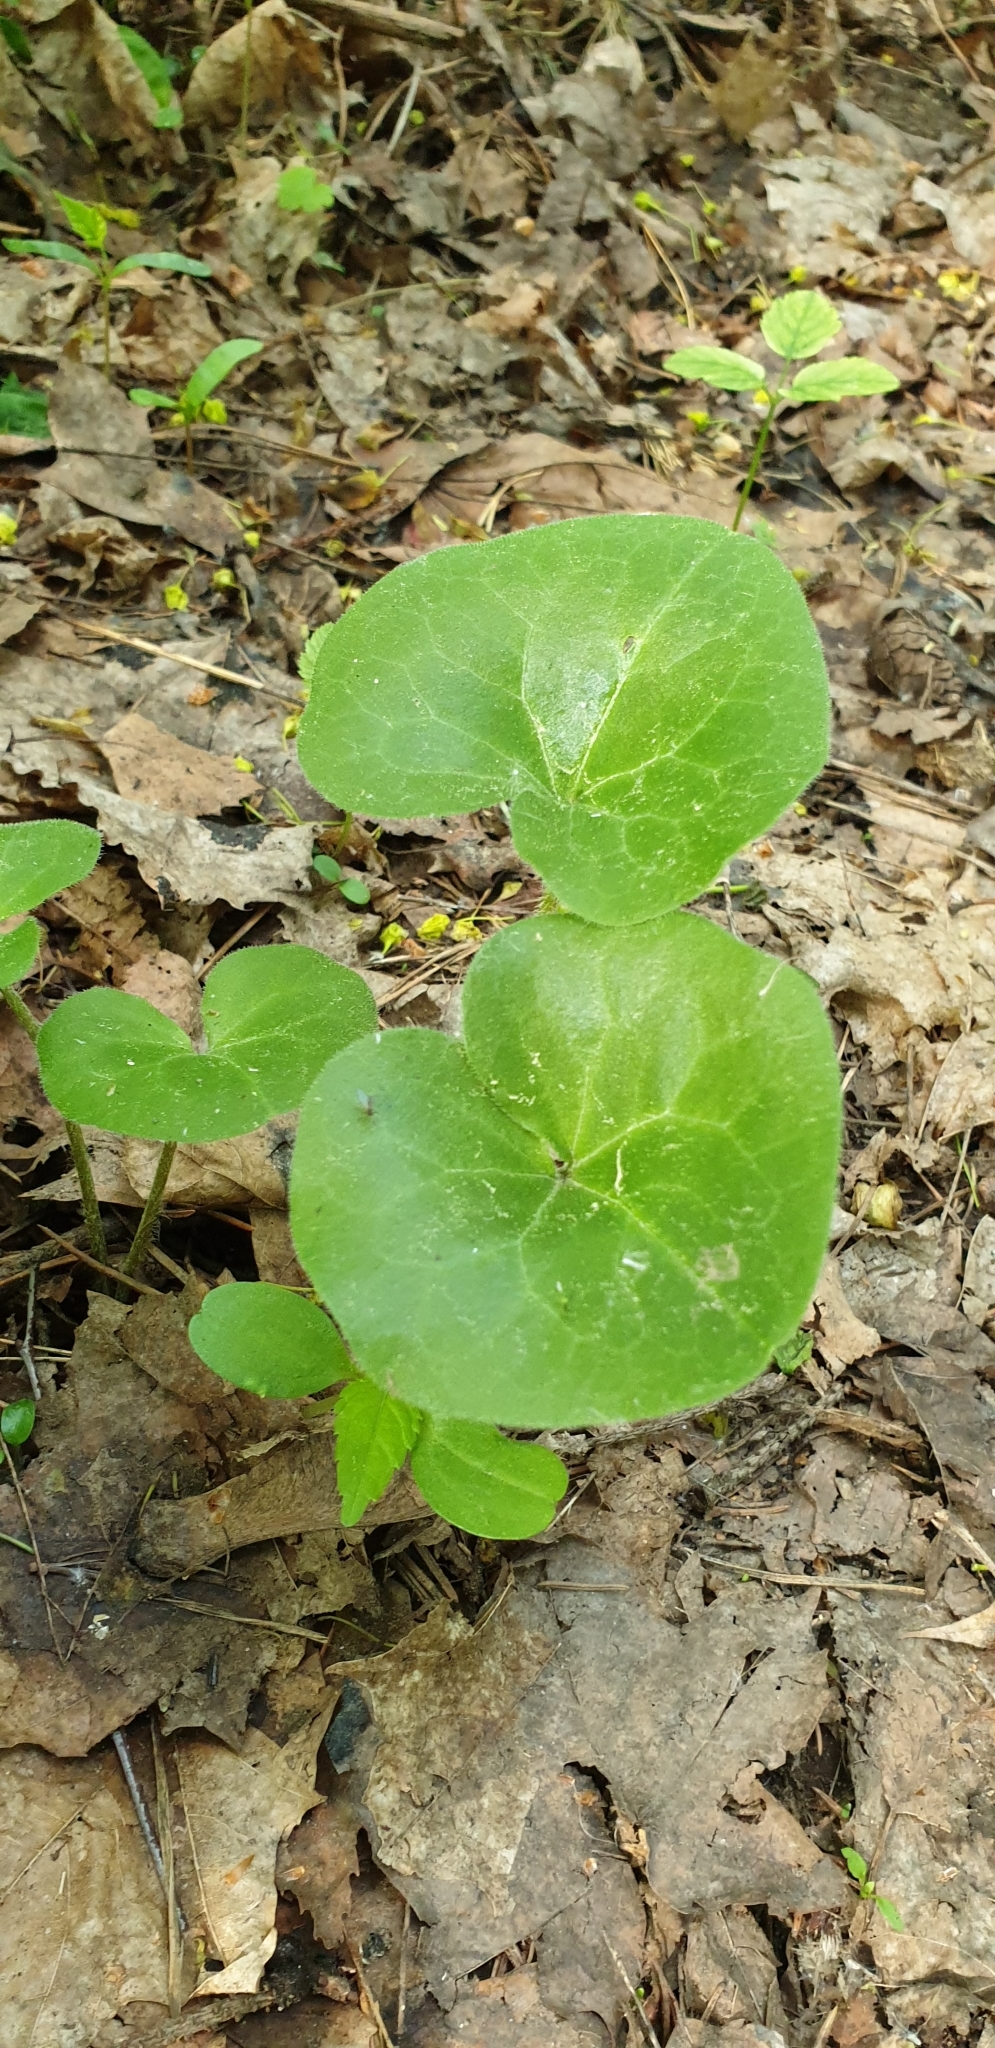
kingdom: Plantae
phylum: Tracheophyta
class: Magnoliopsida
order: Piperales
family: Aristolochiaceae
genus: Asarum
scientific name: Asarum europaeum
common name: Asarabacca
